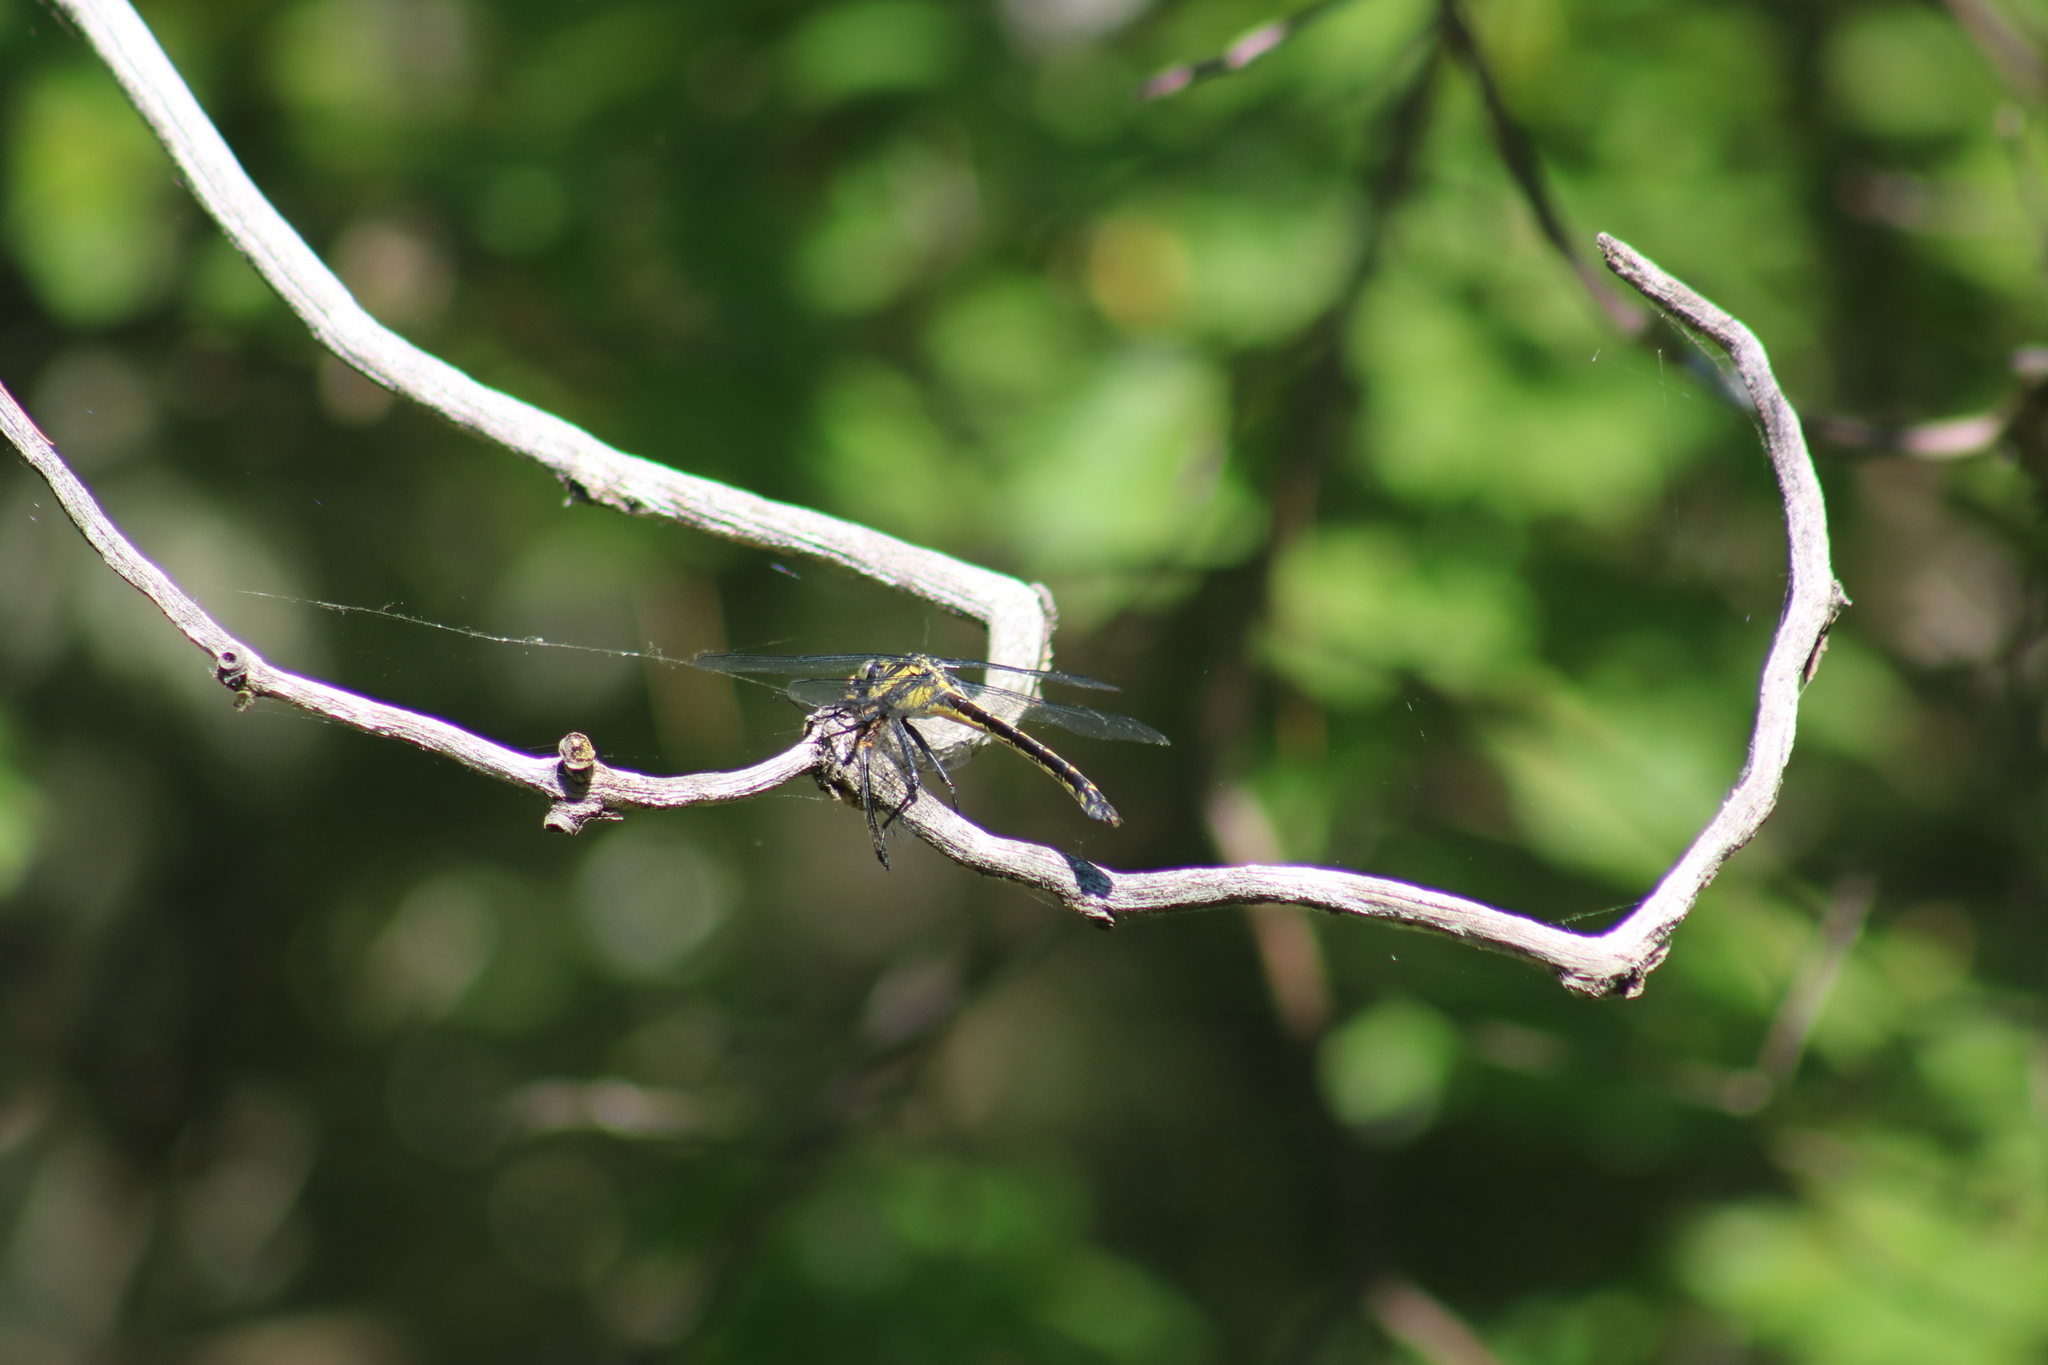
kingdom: Animalia
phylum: Arthropoda
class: Insecta
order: Odonata
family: Gomphidae
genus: Hagenius
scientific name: Hagenius brevistylus
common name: Dragonhunter
